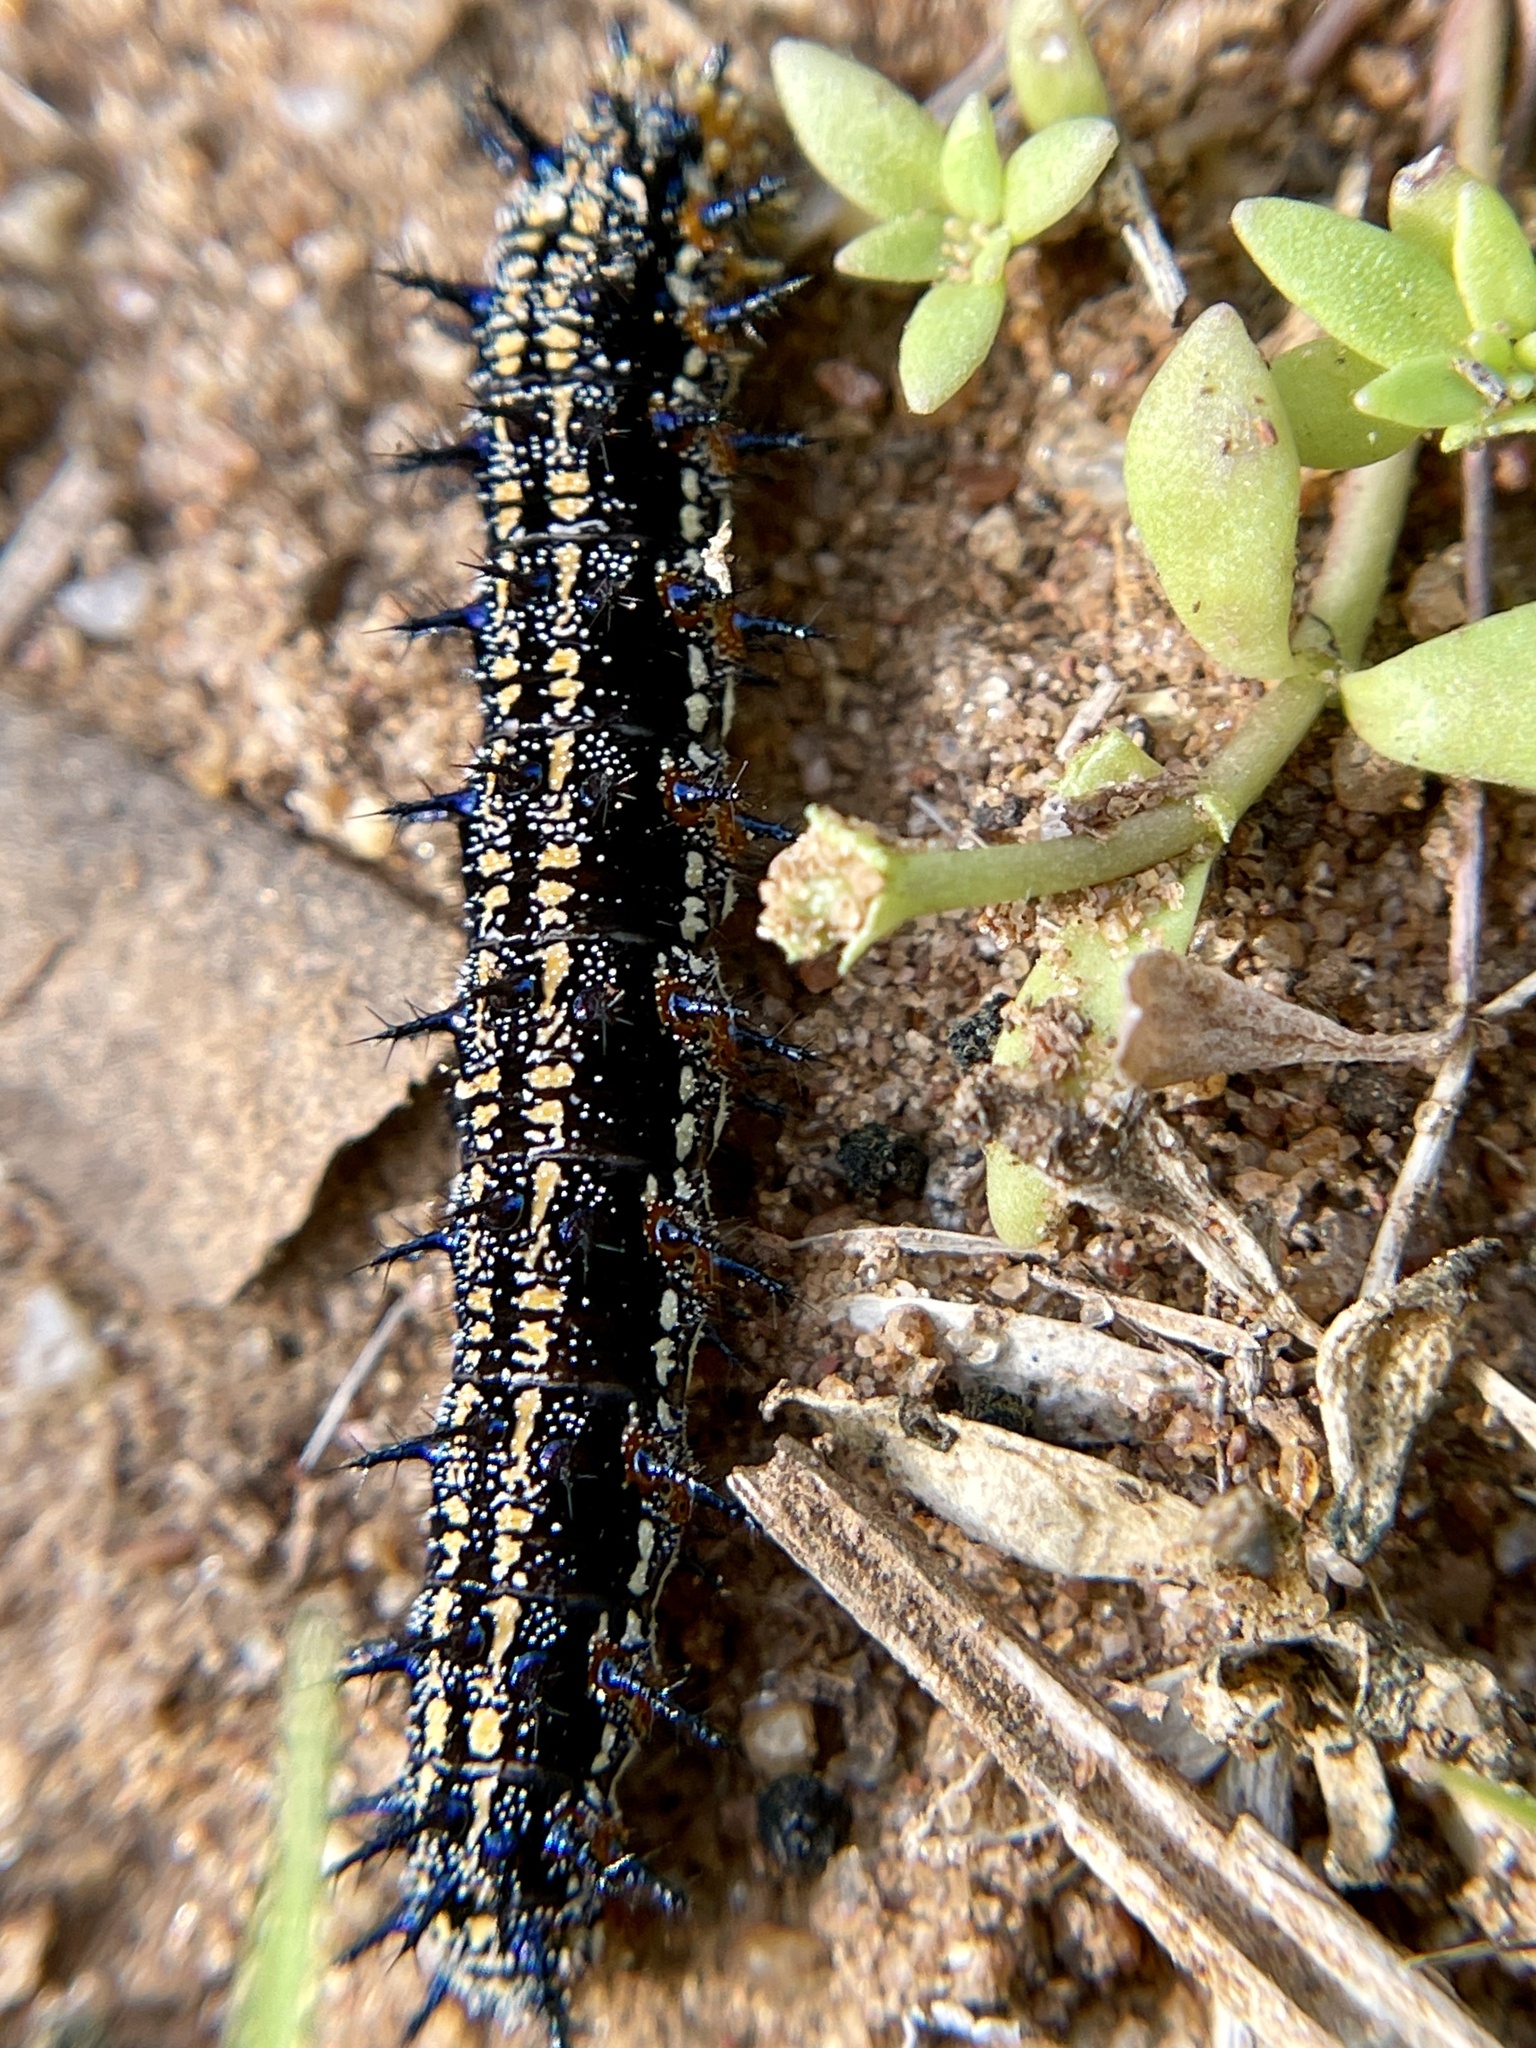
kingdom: Animalia
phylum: Arthropoda
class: Insecta
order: Lepidoptera
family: Nymphalidae
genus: Junonia
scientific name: Junonia coenia
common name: Common buckeye
